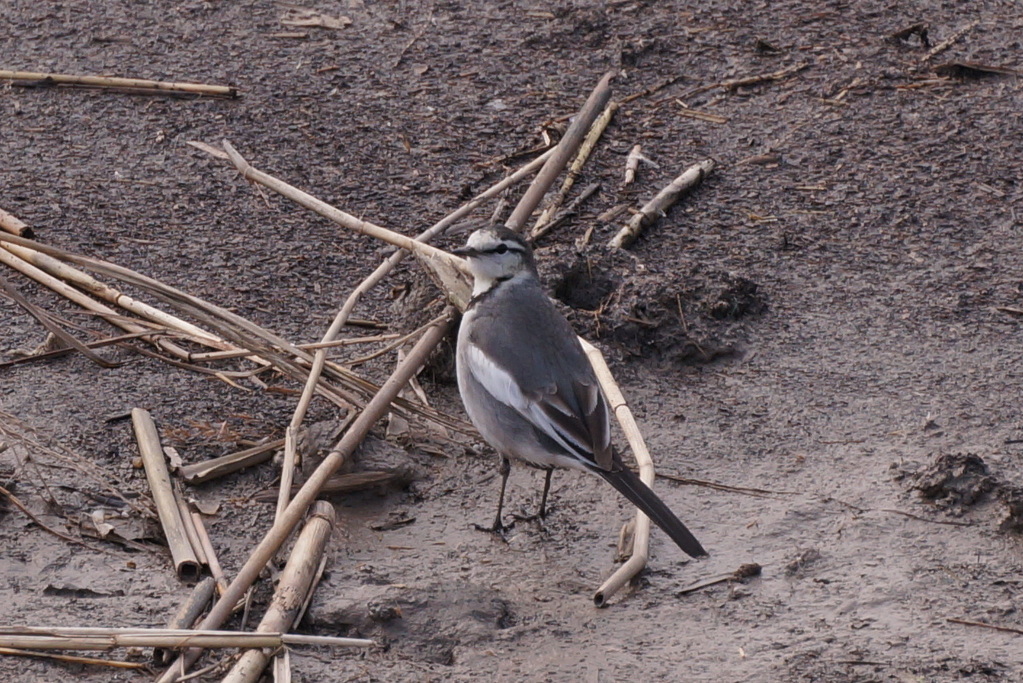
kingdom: Animalia
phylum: Chordata
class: Aves
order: Passeriformes
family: Motacillidae
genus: Motacilla
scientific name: Motacilla alba
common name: White wagtail
